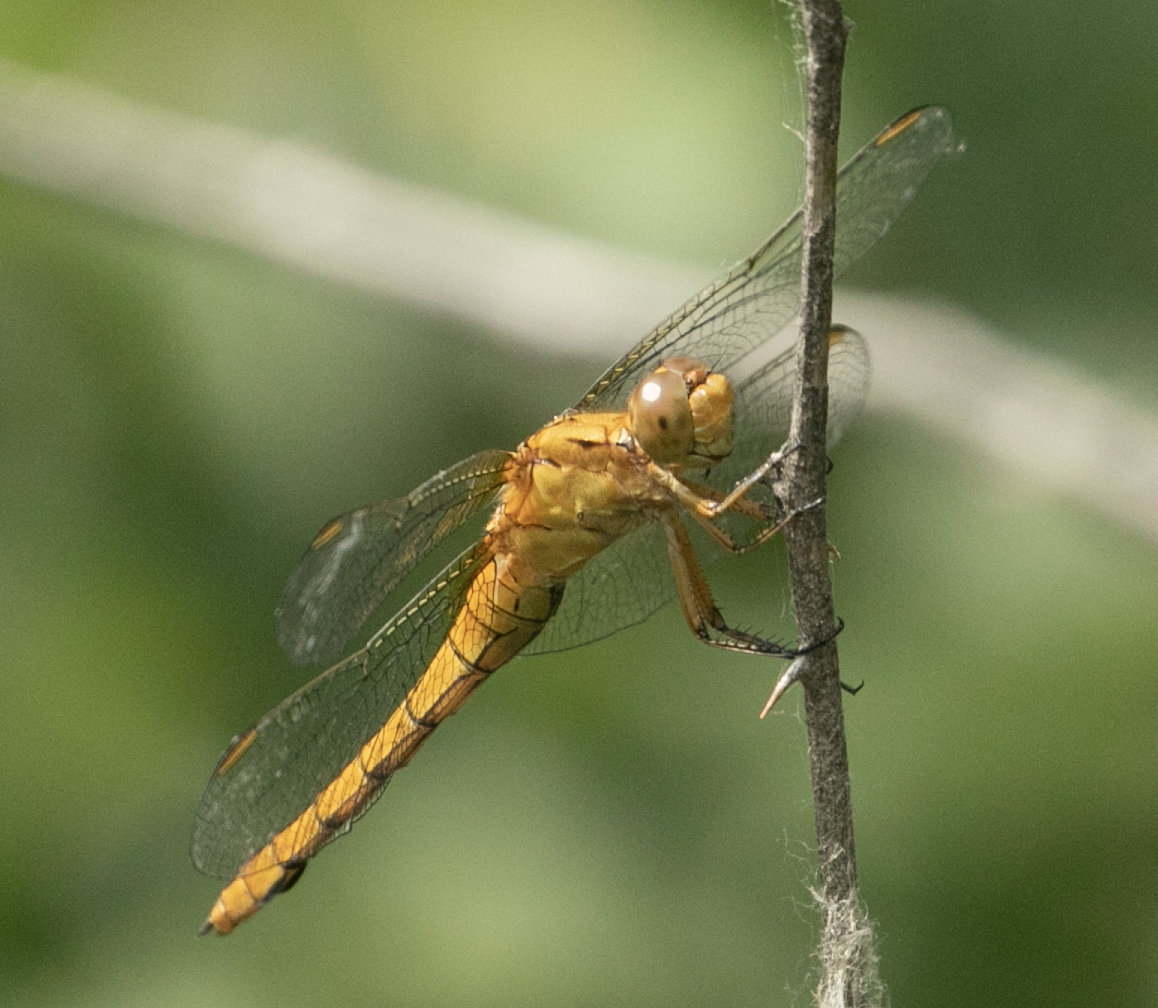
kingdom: Animalia
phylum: Arthropoda
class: Insecta
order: Odonata
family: Libellulidae
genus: Orthetrum
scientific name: Orthetrum coerulescens
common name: Keeled skimmer
